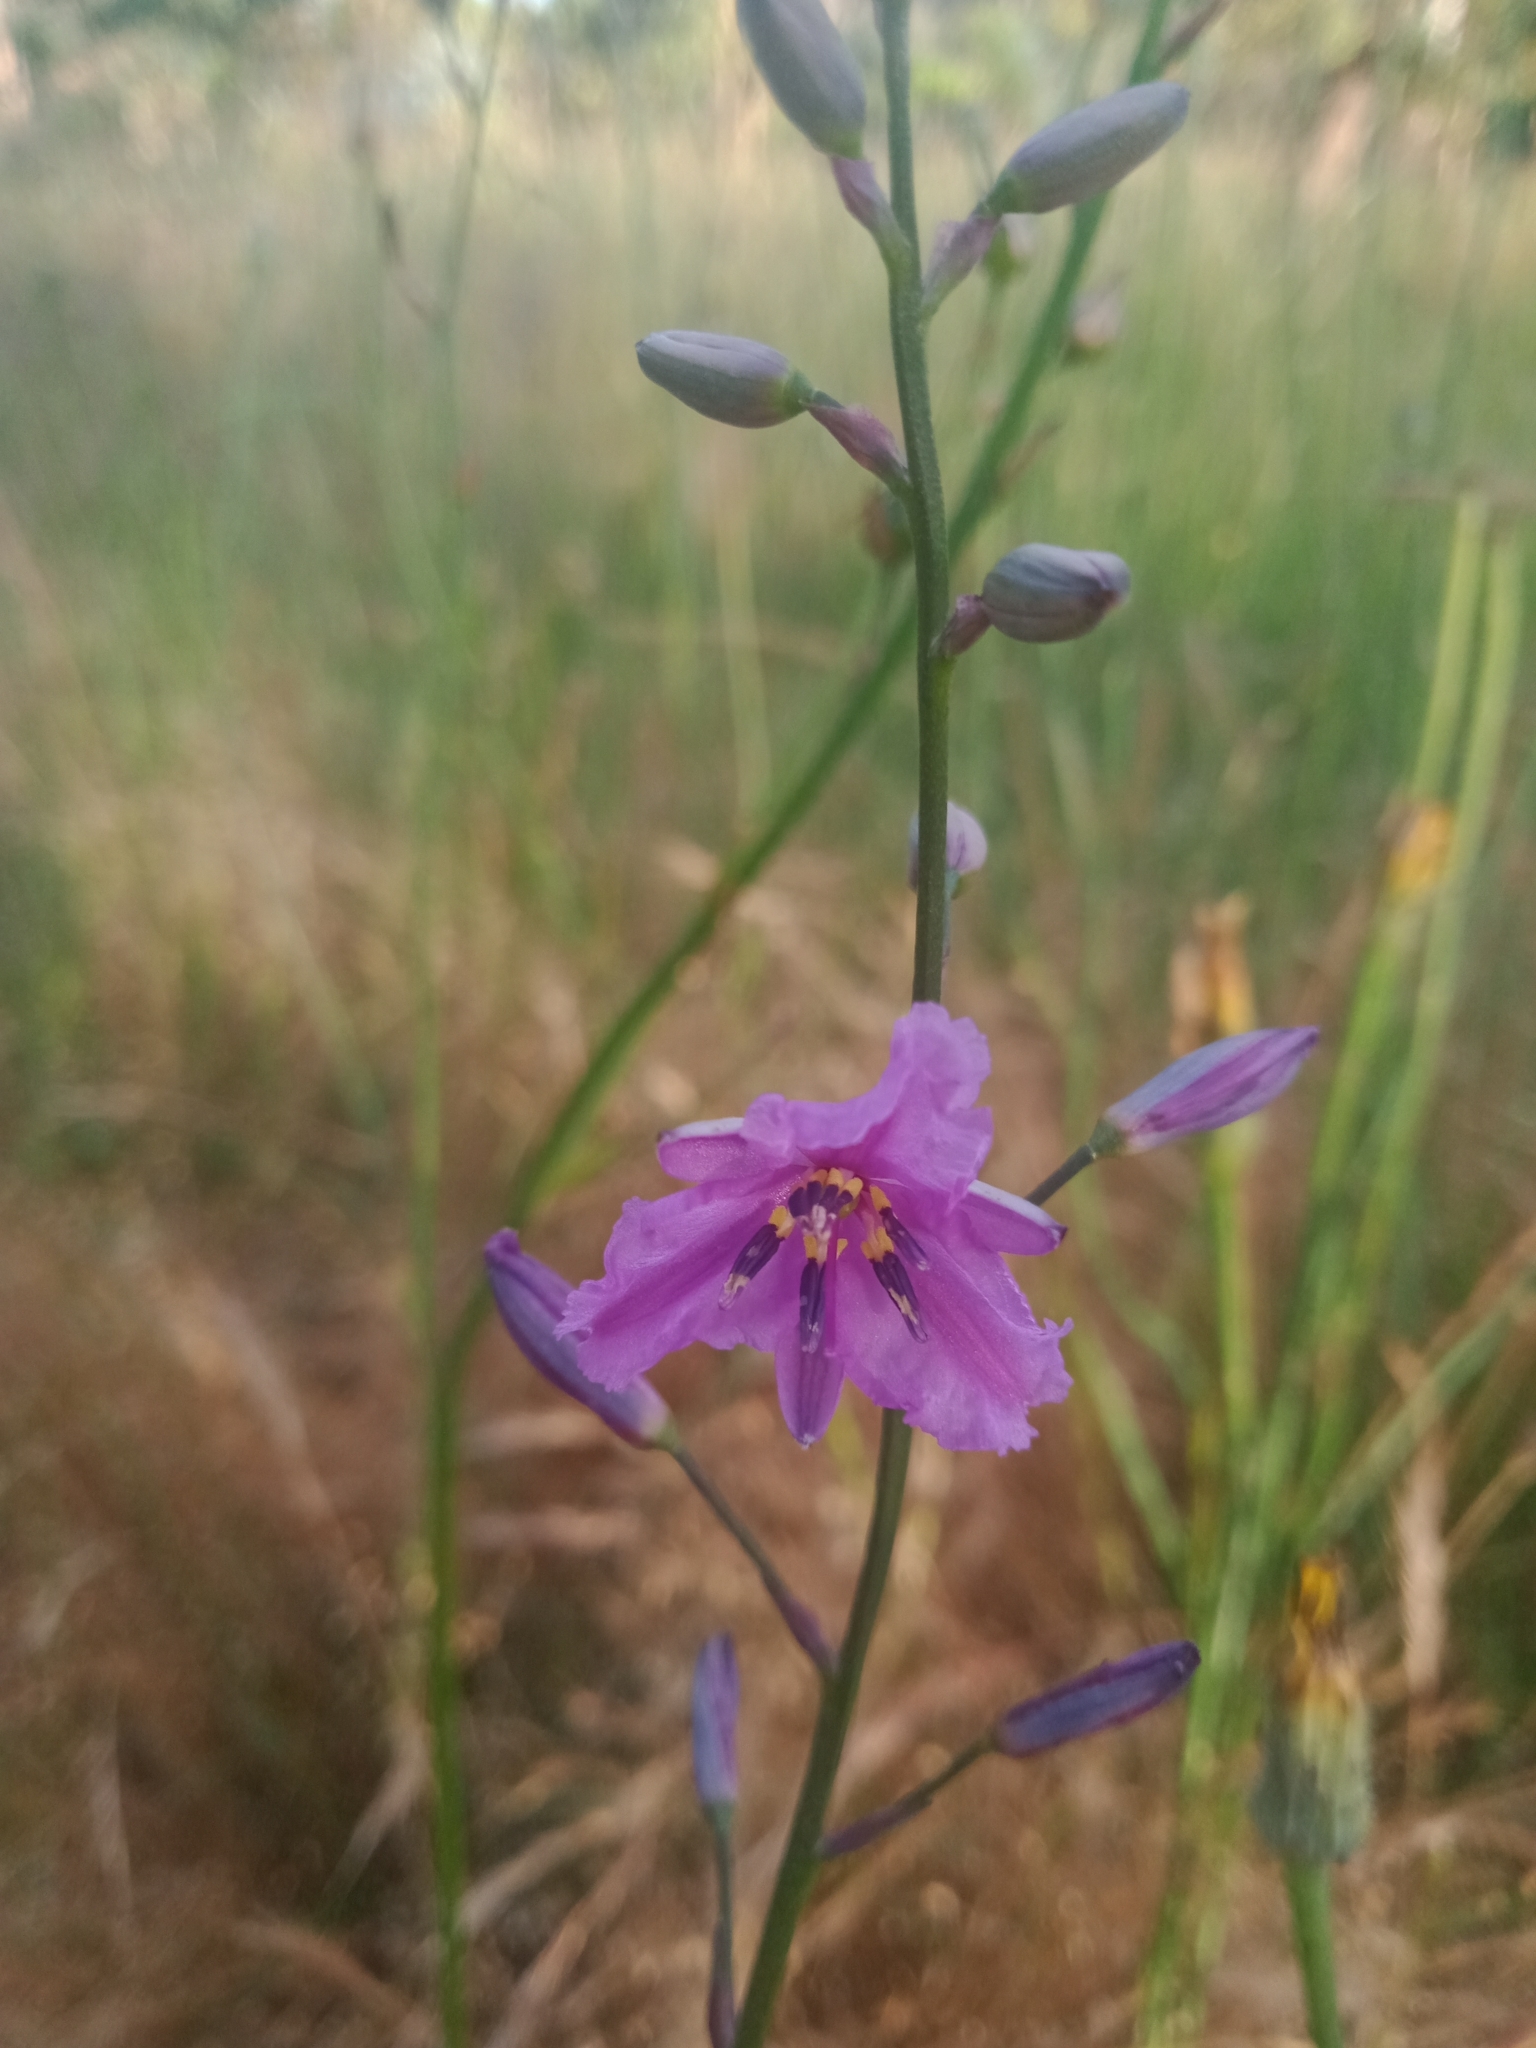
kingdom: Plantae
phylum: Tracheophyta
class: Liliopsida
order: Asparagales
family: Asparagaceae
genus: Arthropodium
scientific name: Arthropodium strictum
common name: Chocolate-lily
